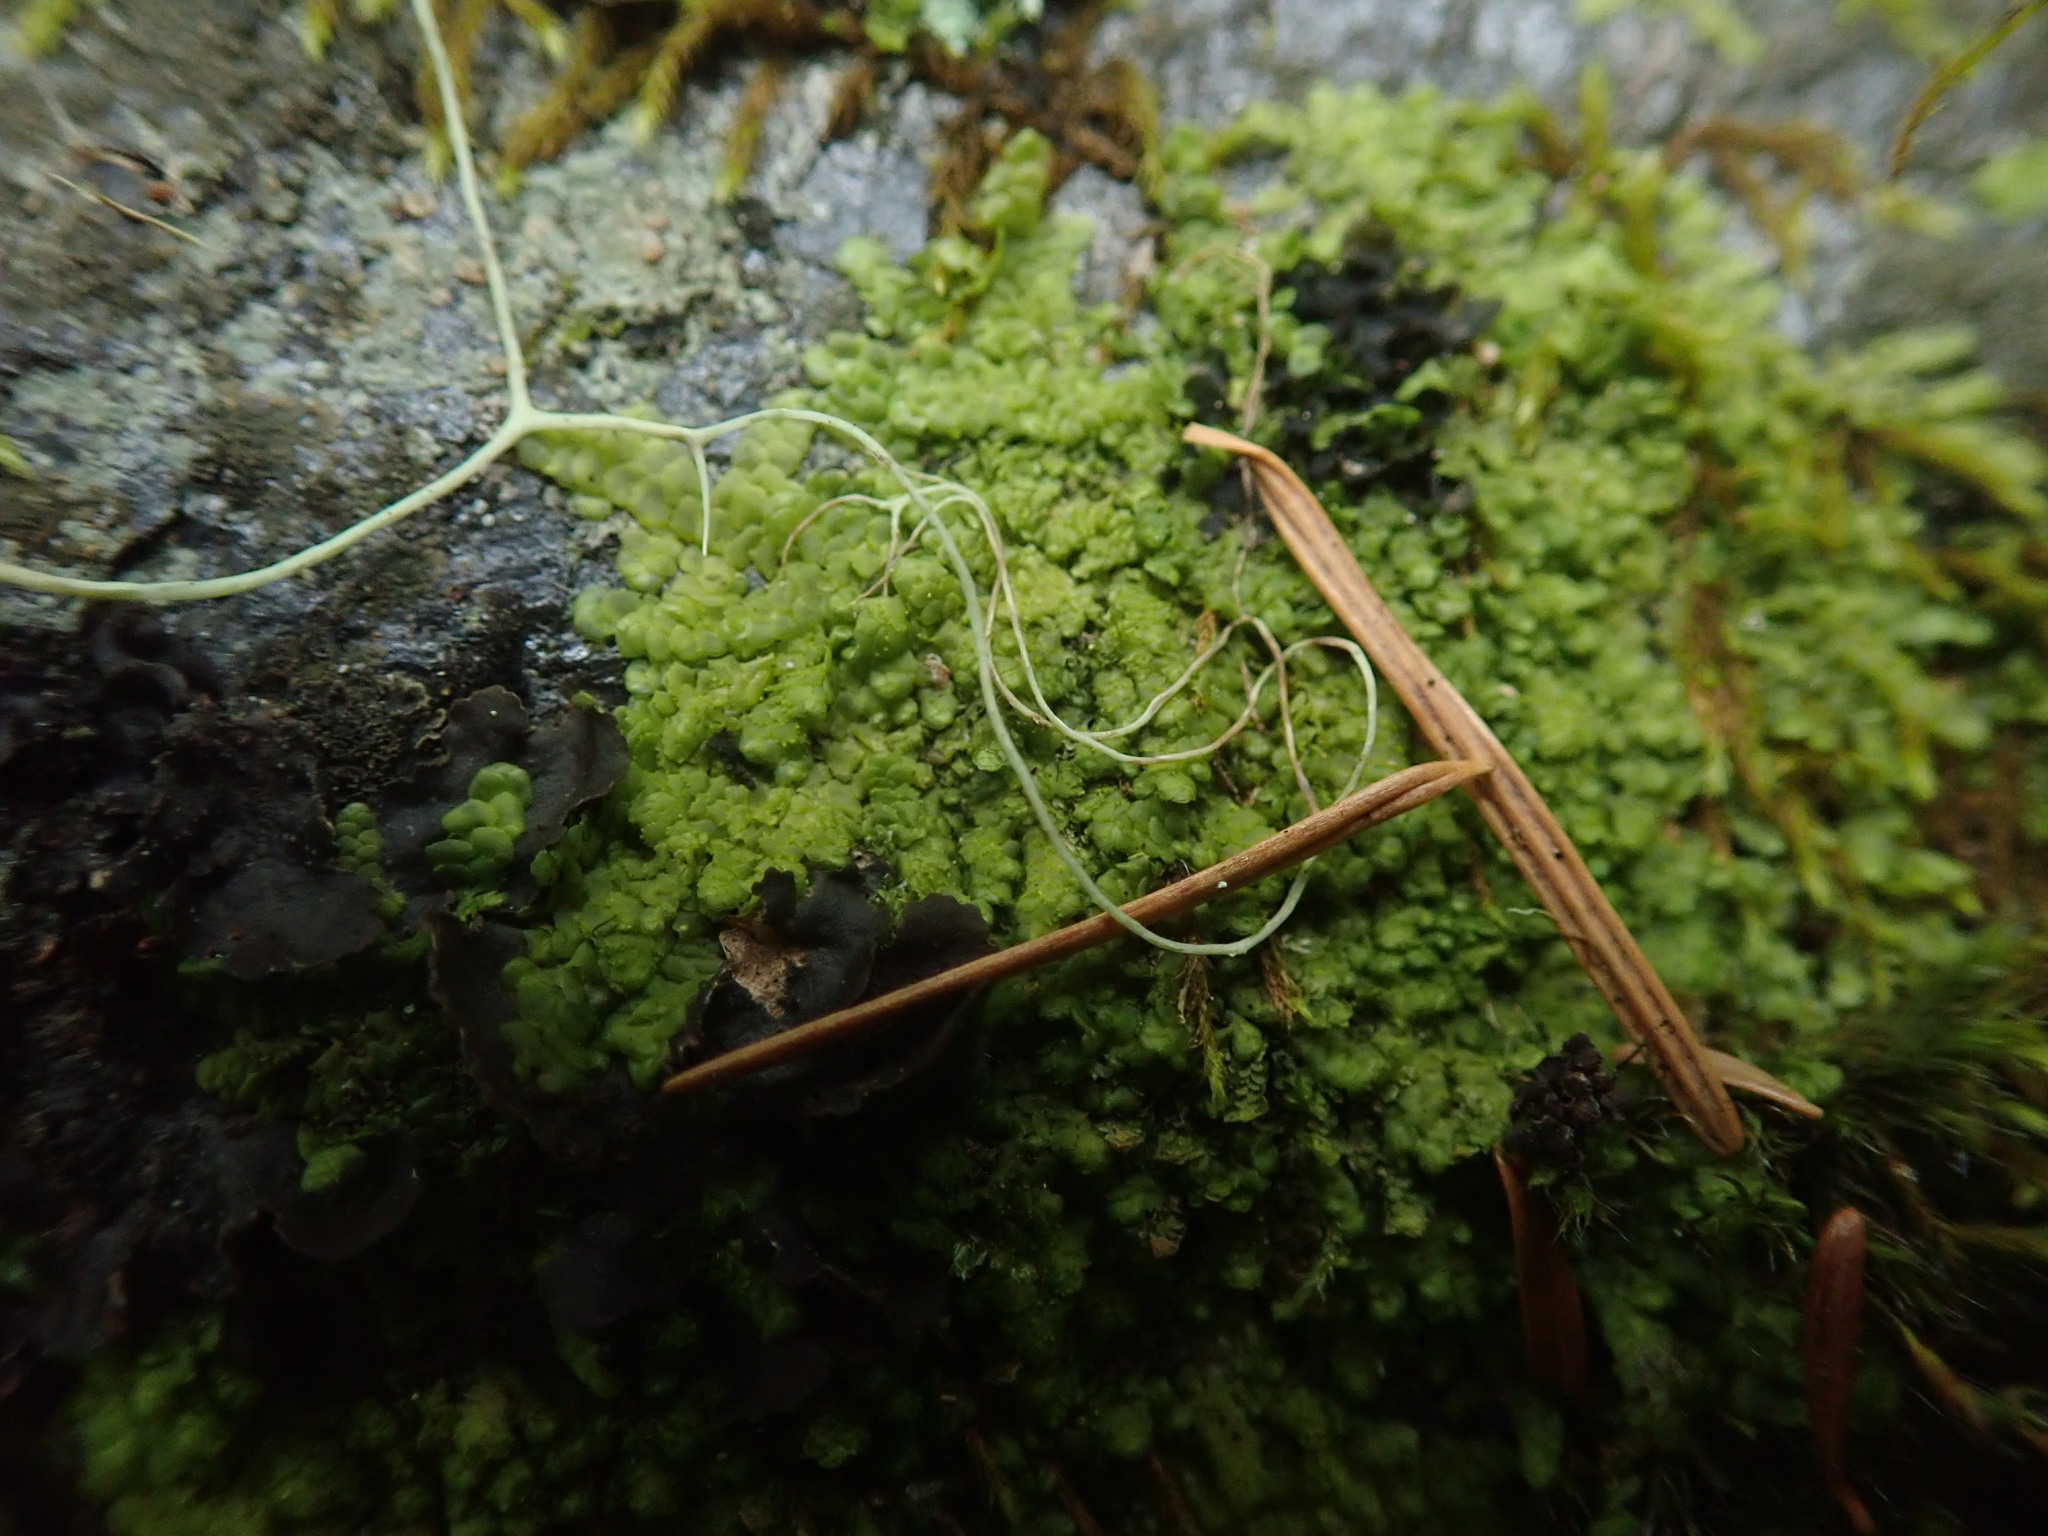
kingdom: Plantae
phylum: Marchantiophyta
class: Jungermanniopsida
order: Porellales
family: Radulaceae
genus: Radula
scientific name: Radula complanata
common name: Flat-leaved scalewort
